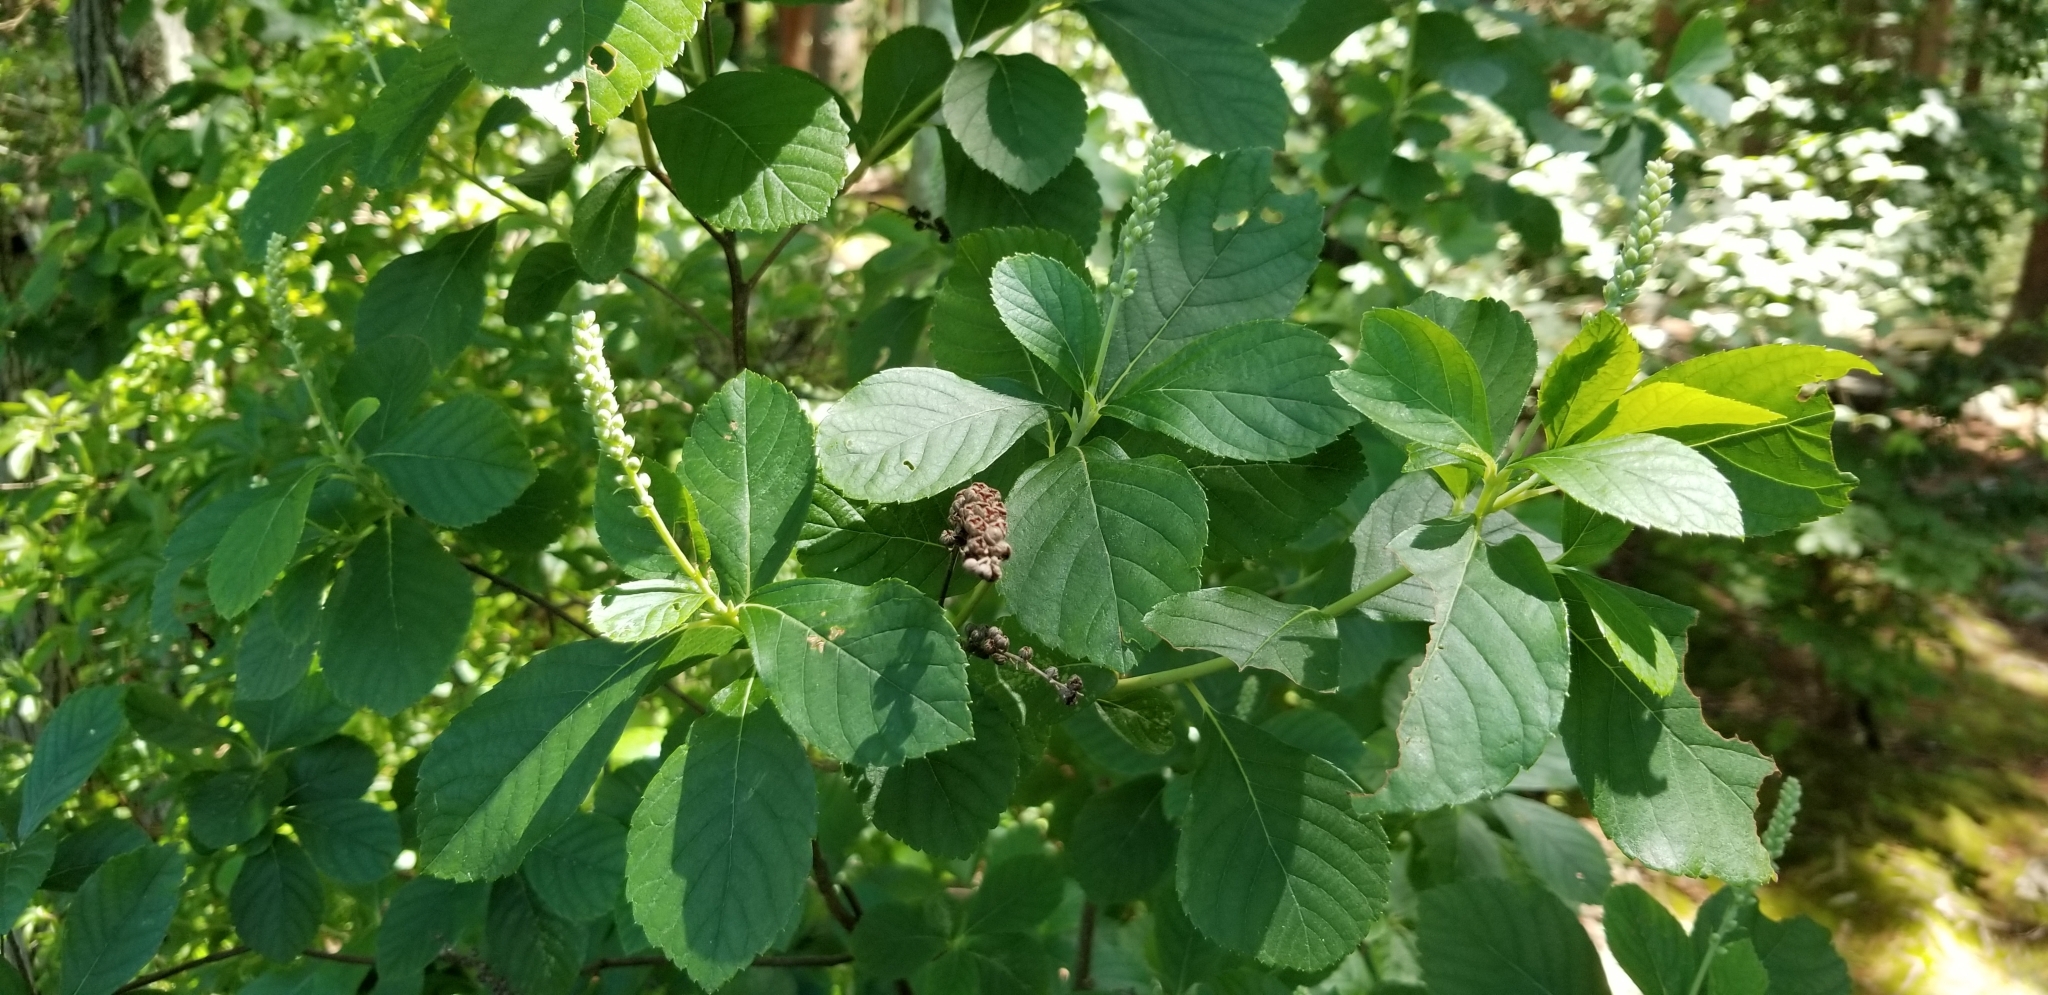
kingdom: Plantae
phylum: Tracheophyta
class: Magnoliopsida
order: Ericales
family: Clethraceae
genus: Clethra
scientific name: Clethra alnifolia
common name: Sweet pepperbush
